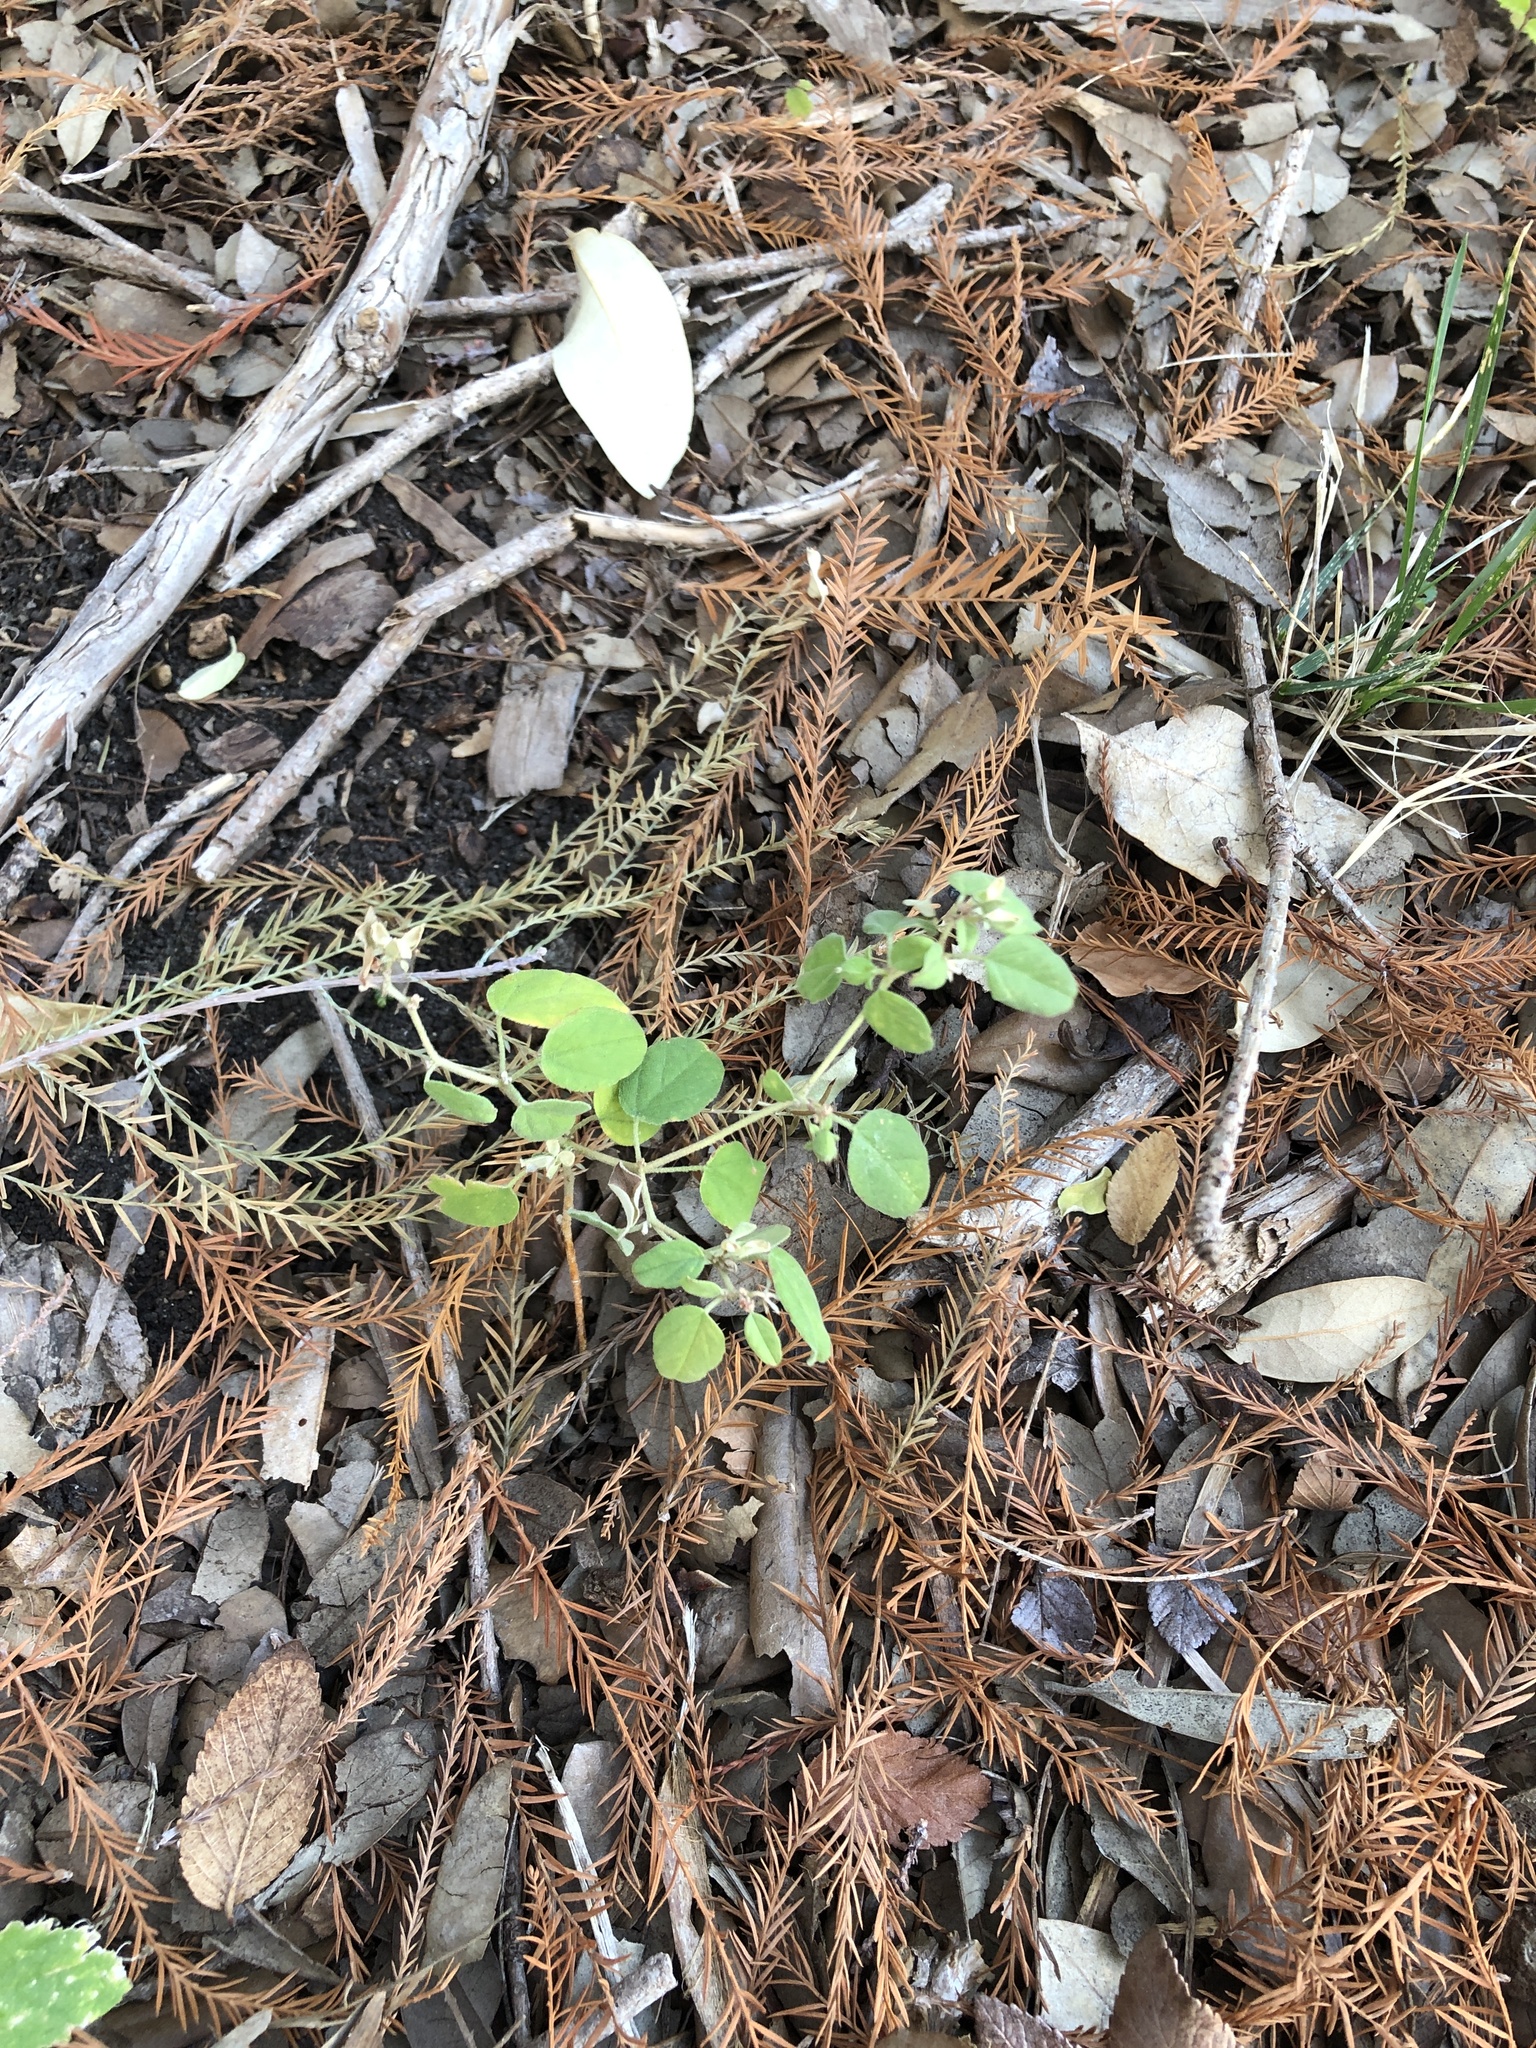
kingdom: Plantae
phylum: Tracheophyta
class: Magnoliopsida
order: Malpighiales
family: Euphorbiaceae
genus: Croton
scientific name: Croton monanthogynus
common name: One-seed croton
